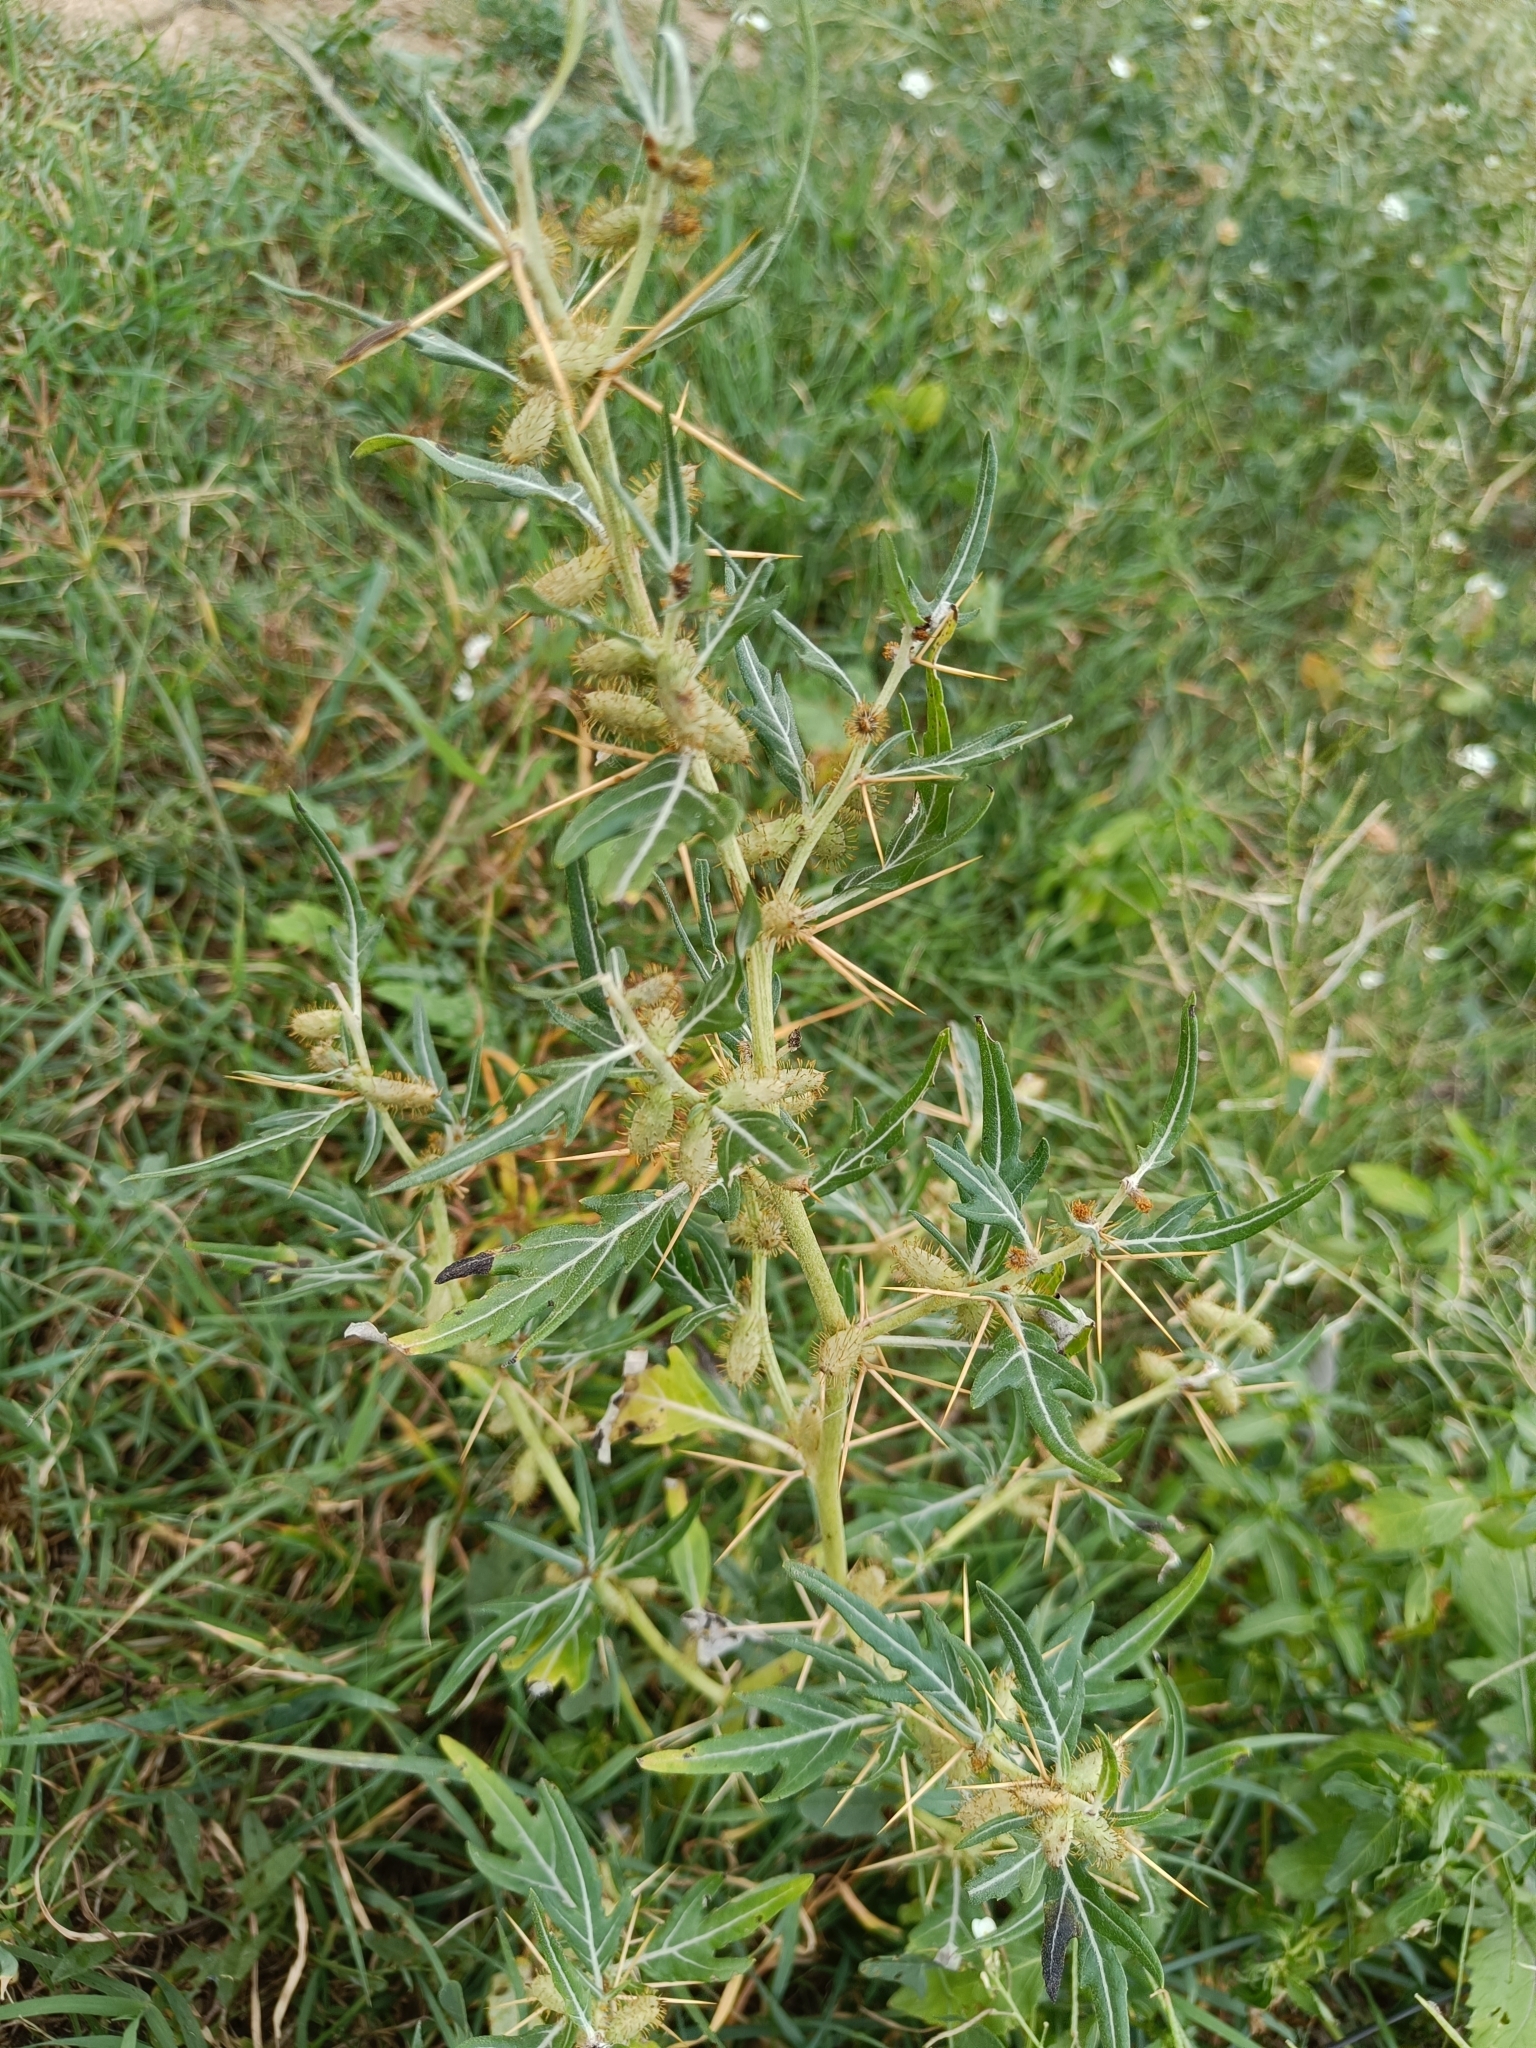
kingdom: Plantae
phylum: Tracheophyta
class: Magnoliopsida
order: Asterales
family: Asteraceae
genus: Xanthium
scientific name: Xanthium spinosum
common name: Spiny cocklebur
